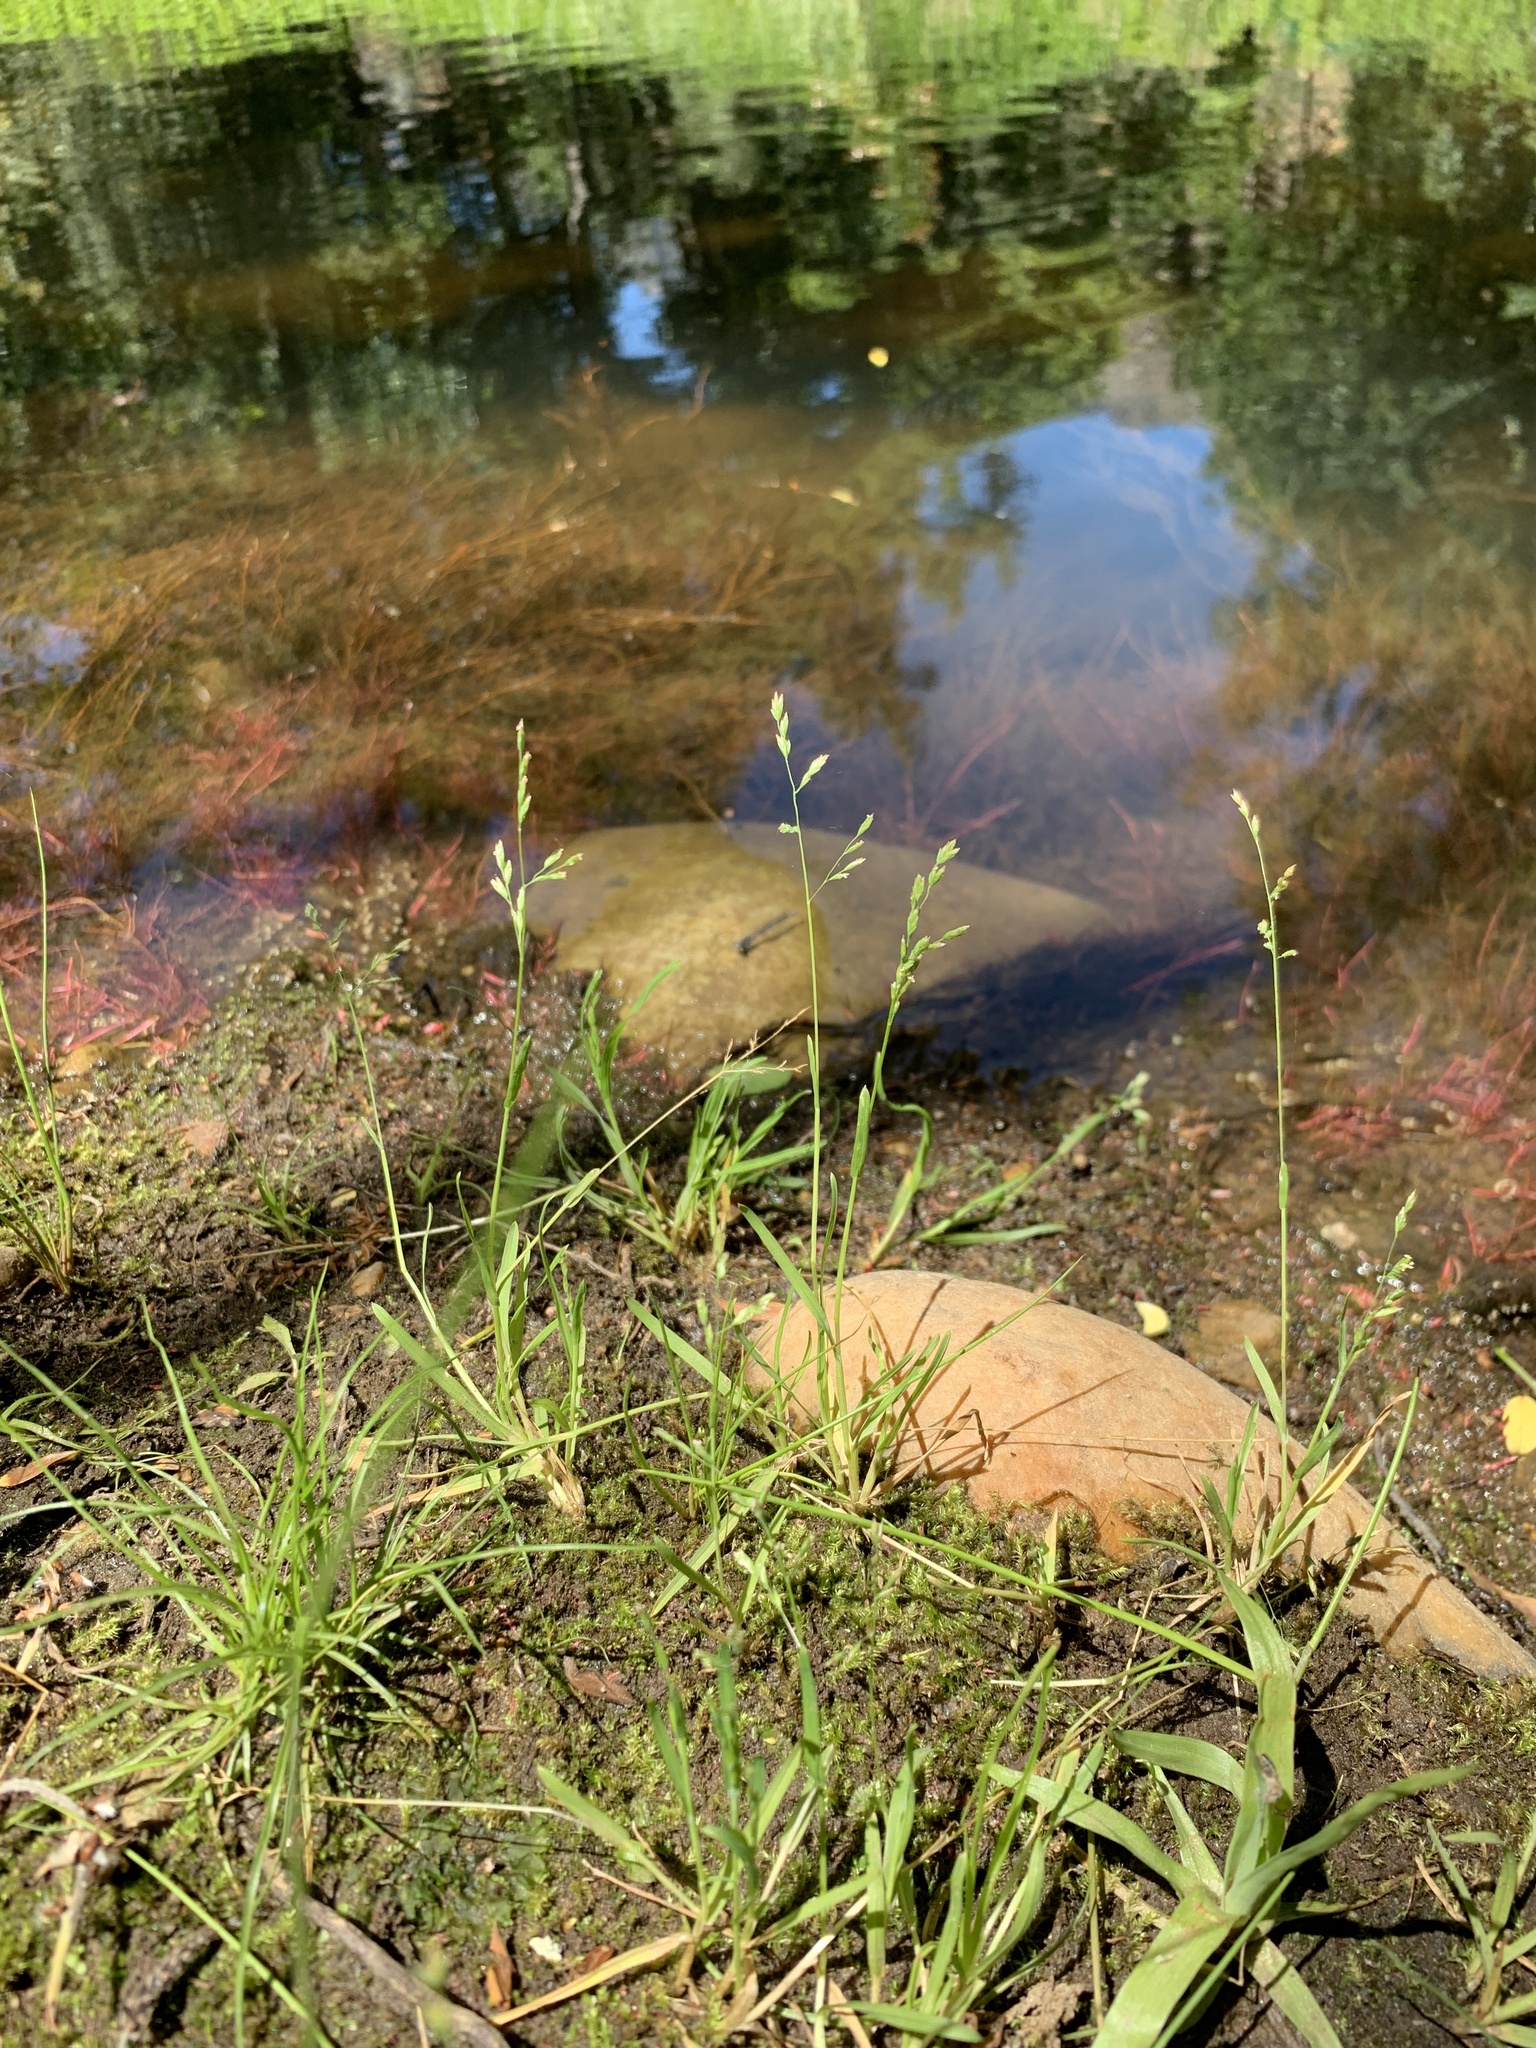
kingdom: Plantae
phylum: Tracheophyta
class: Liliopsida
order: Poales
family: Poaceae
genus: Poa
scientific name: Poa annua
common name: Annual bluegrass
